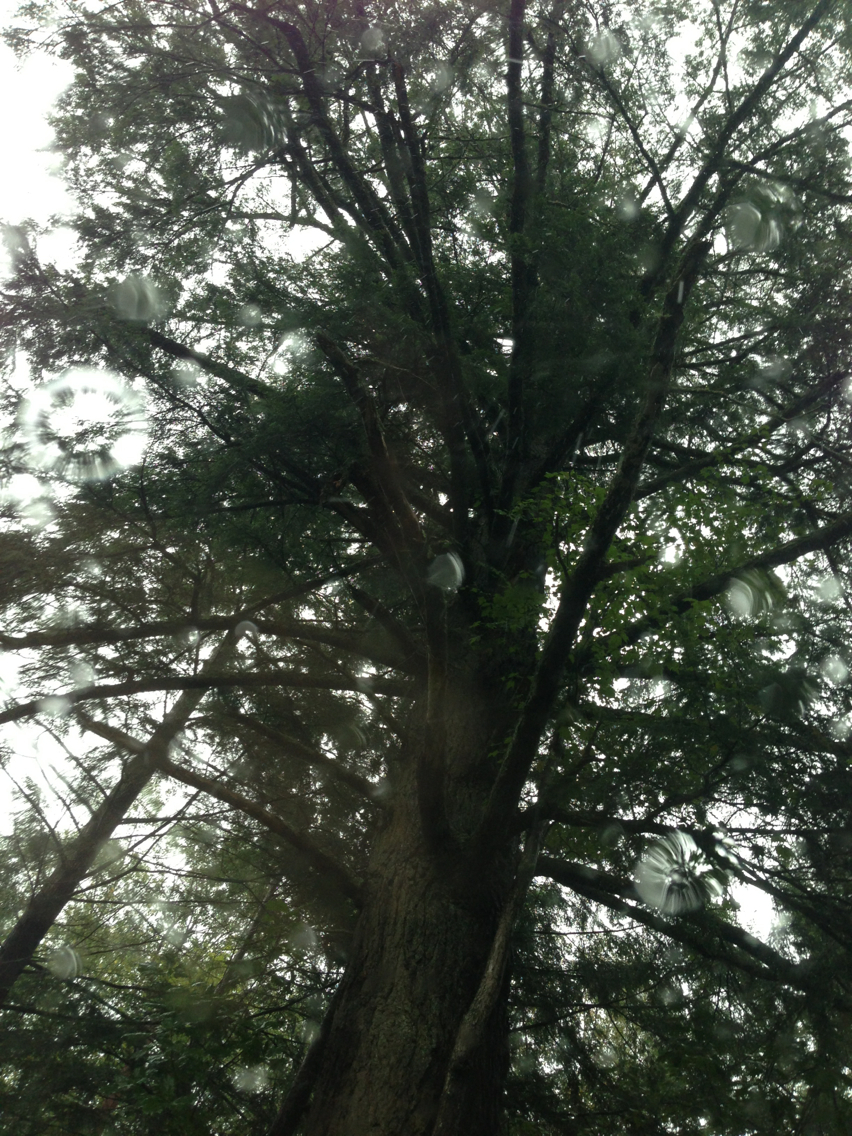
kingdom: Plantae
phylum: Tracheophyta
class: Pinopsida
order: Pinales
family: Pinaceae
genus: Tsuga
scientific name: Tsuga canadensis
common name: Eastern hemlock
